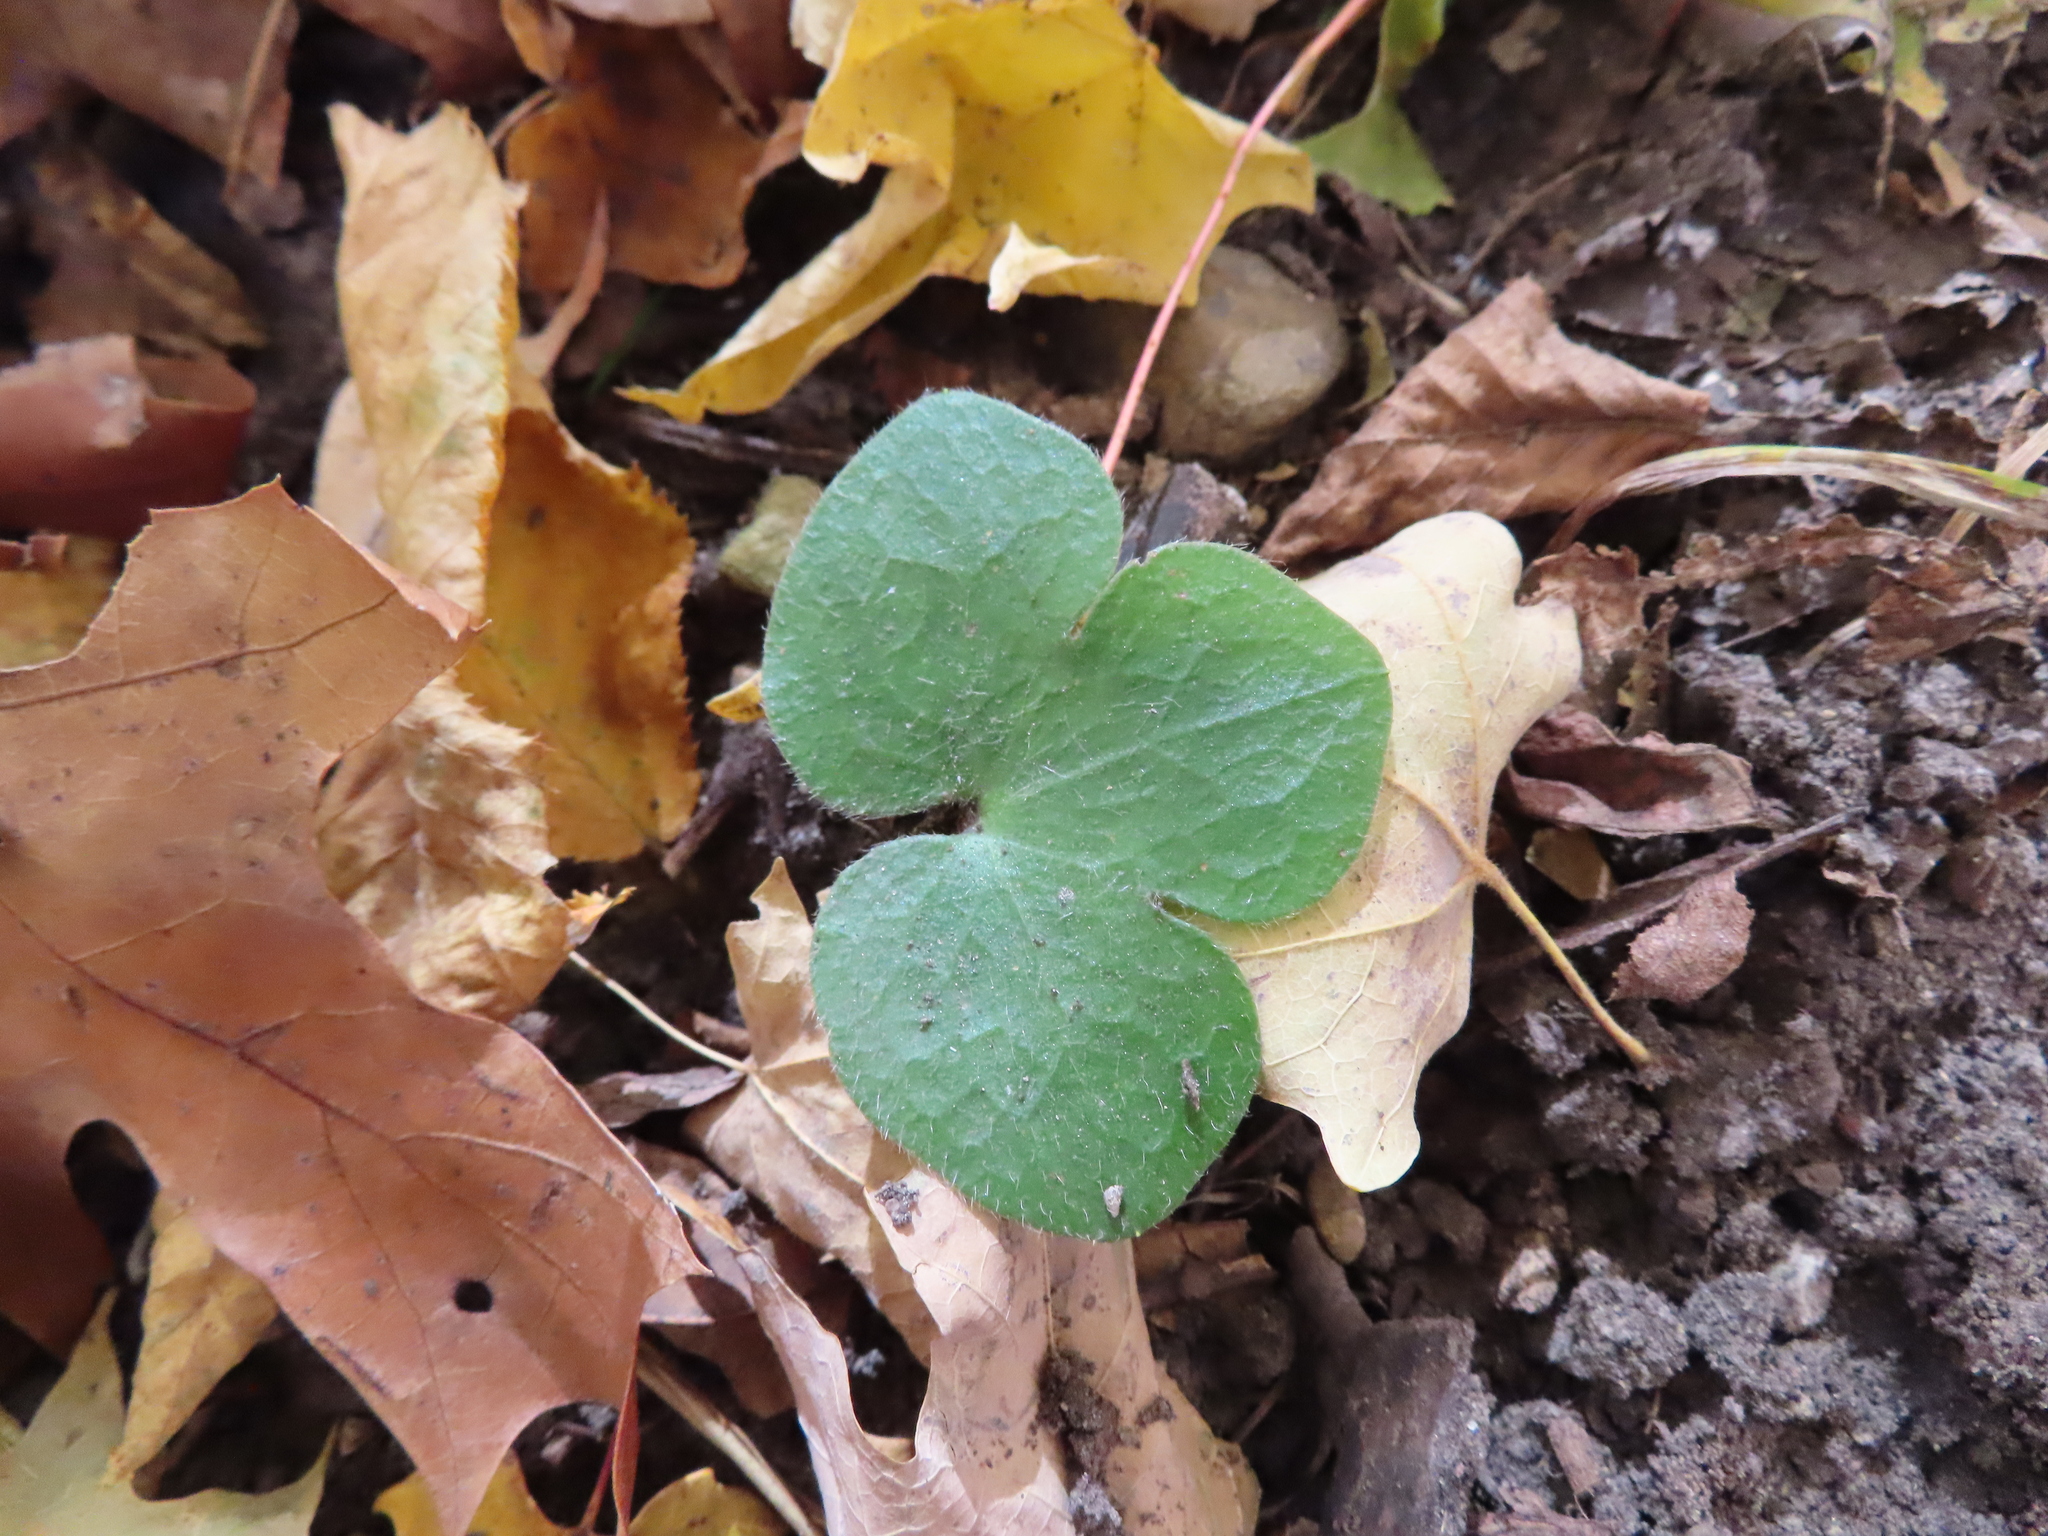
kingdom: Plantae
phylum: Tracheophyta
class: Magnoliopsida
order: Ranunculales
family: Ranunculaceae
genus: Hepatica
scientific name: Hepatica americana
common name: American hepatica
